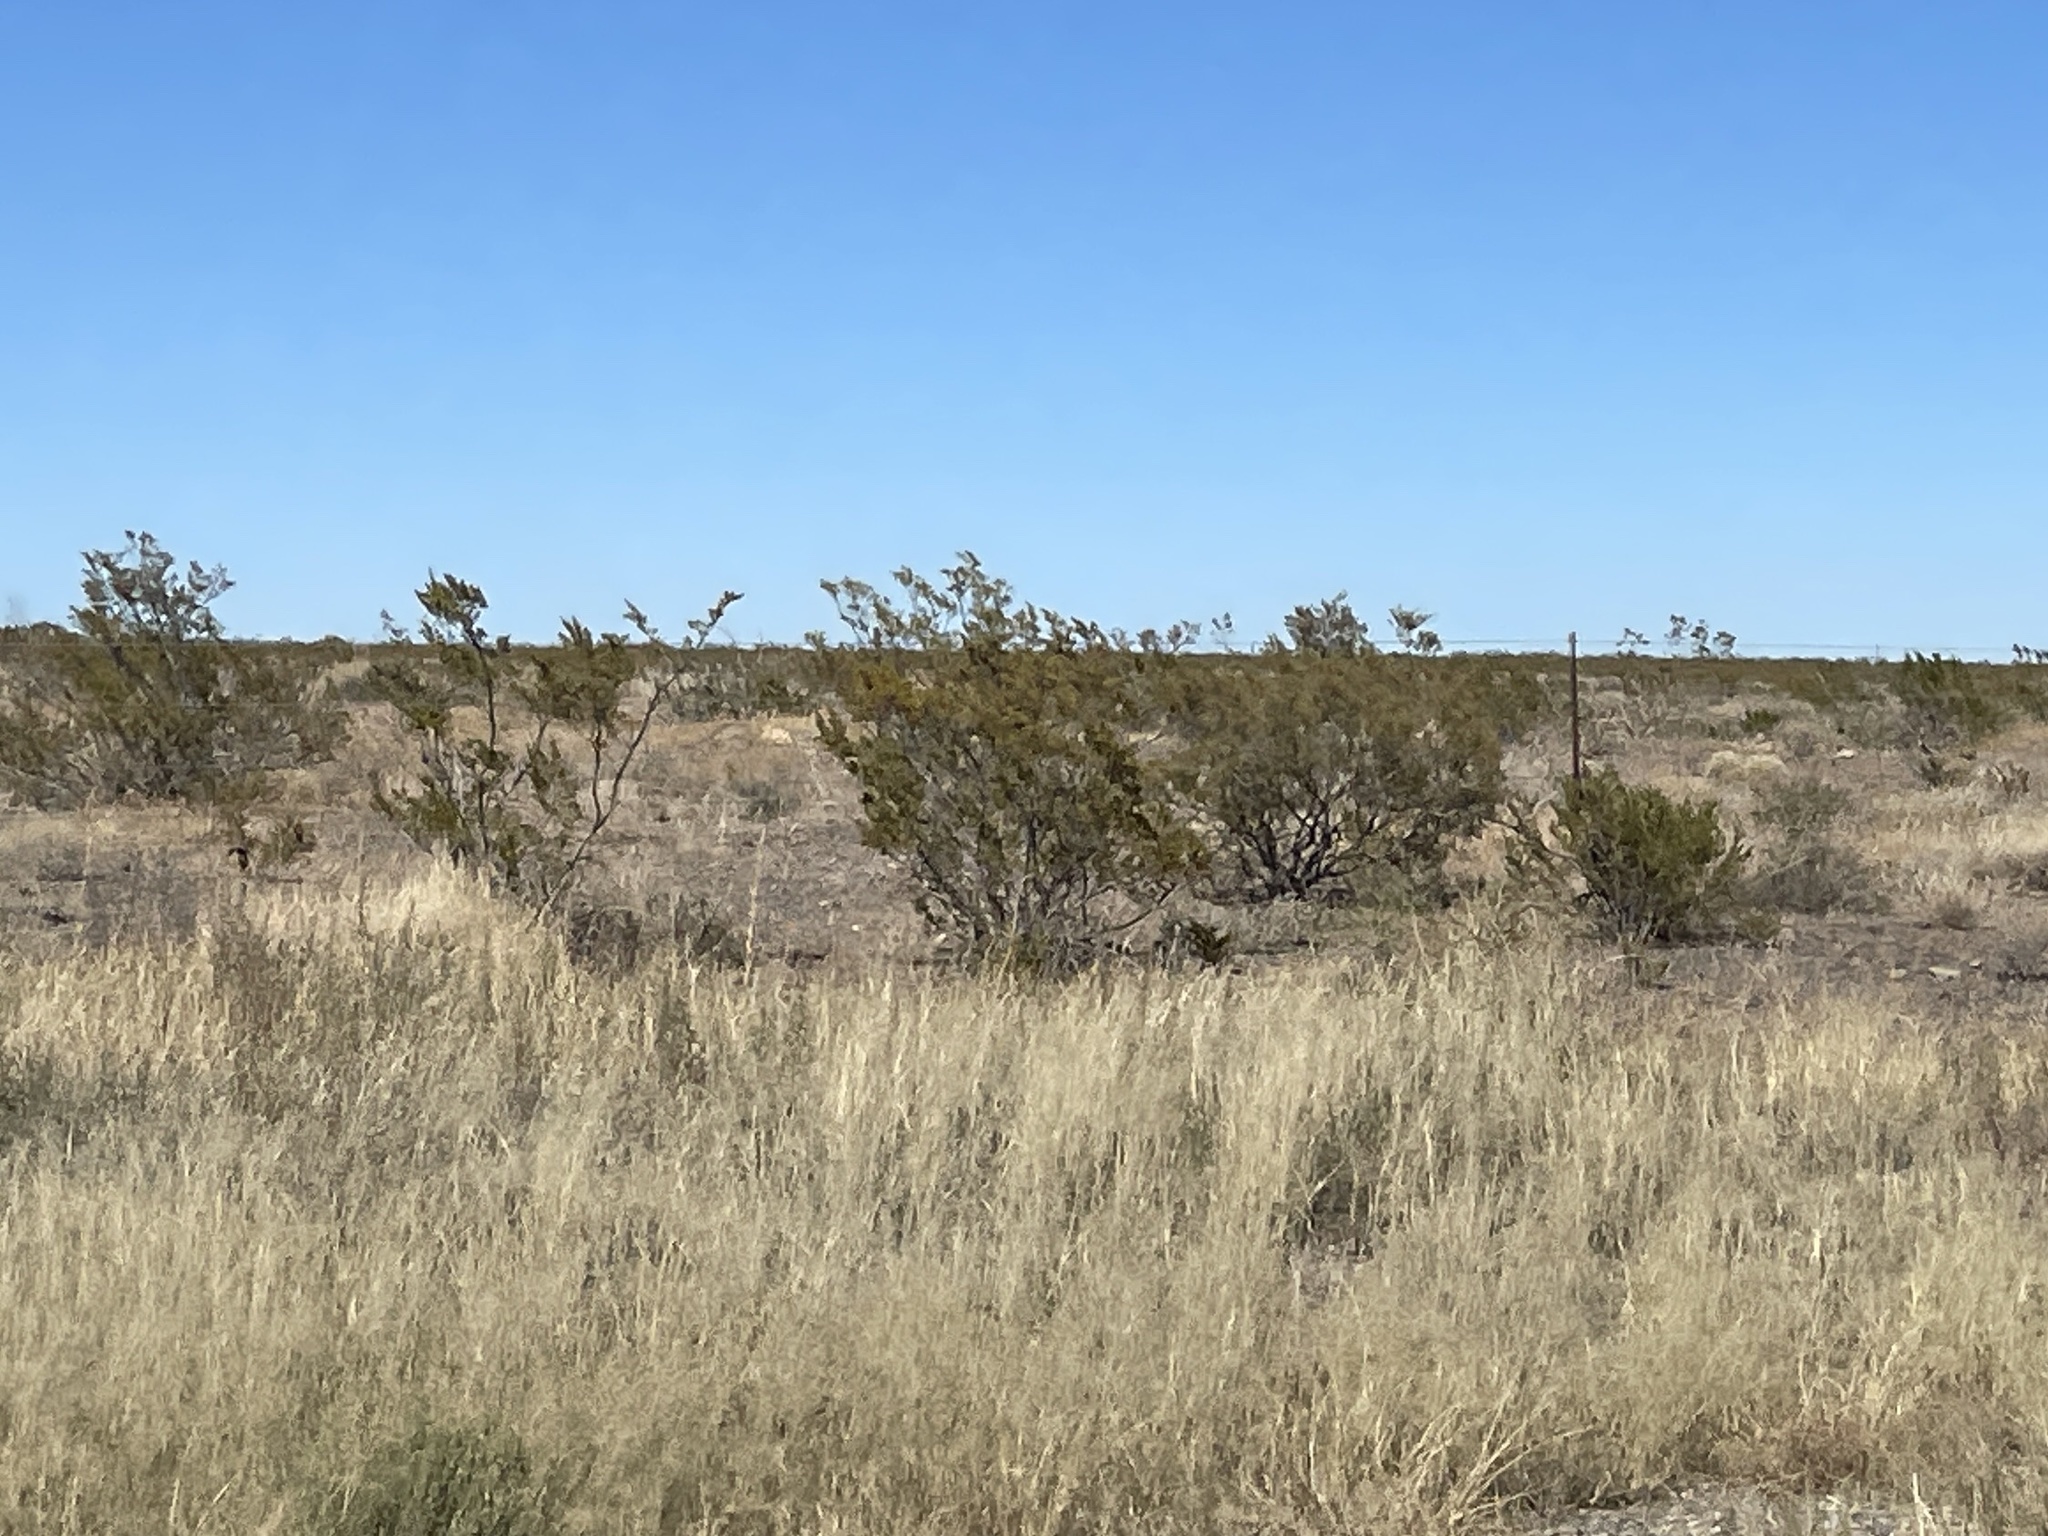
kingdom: Plantae
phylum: Tracheophyta
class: Magnoliopsida
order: Zygophyllales
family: Zygophyllaceae
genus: Larrea
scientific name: Larrea tridentata
